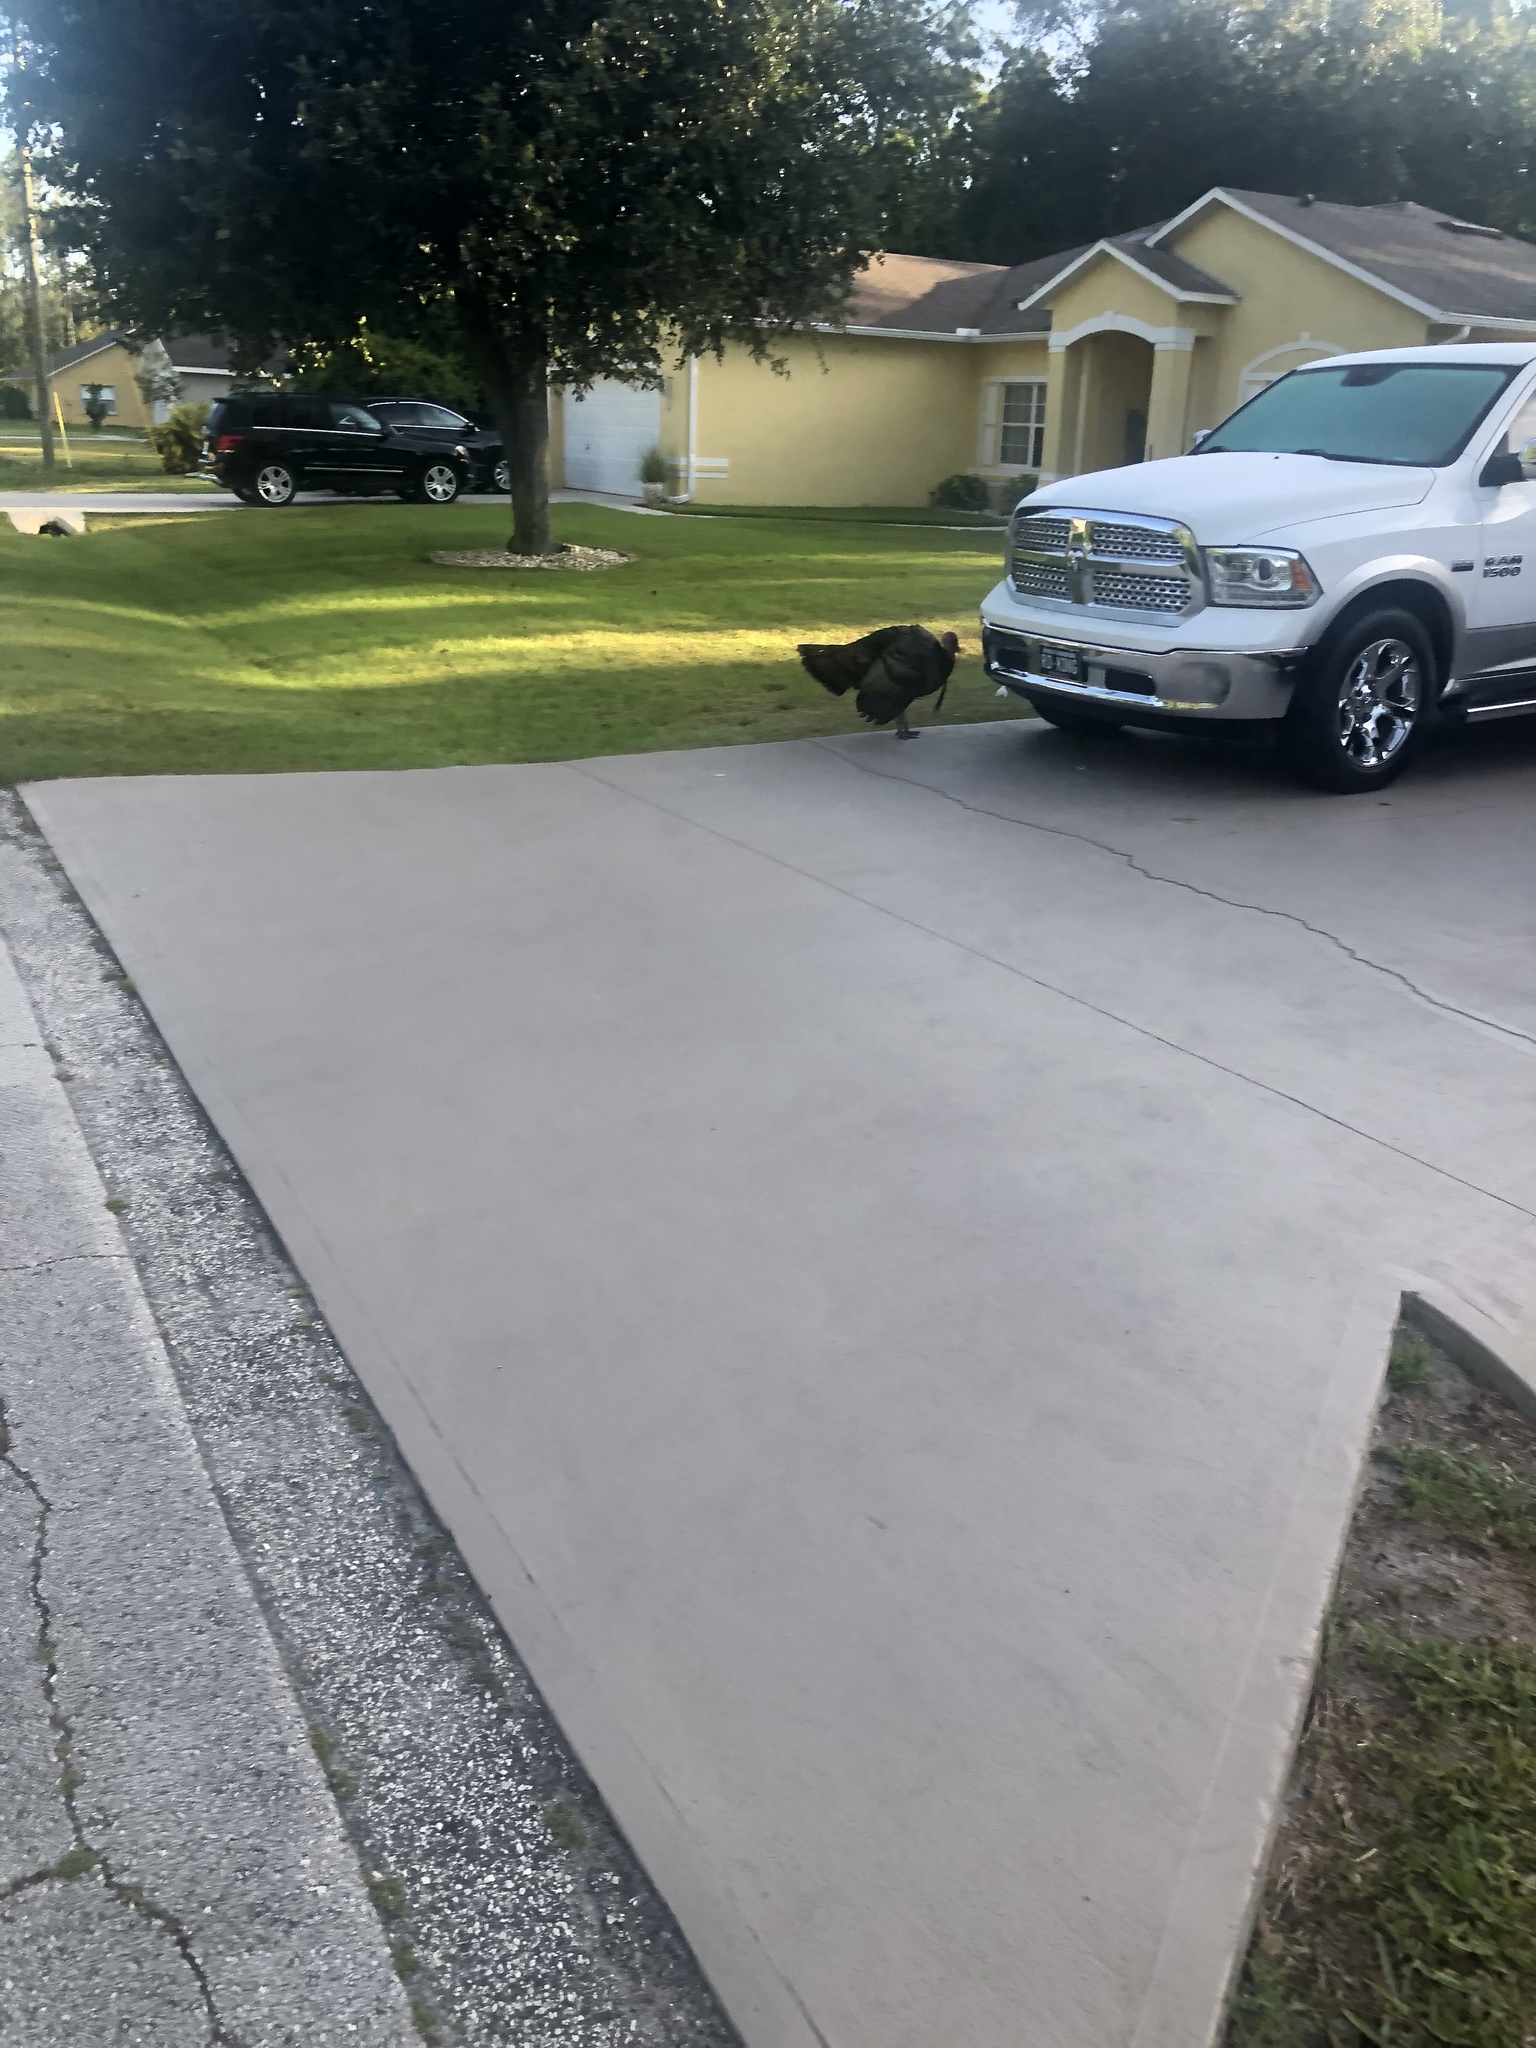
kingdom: Animalia
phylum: Chordata
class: Aves
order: Galliformes
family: Phasianidae
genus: Meleagris
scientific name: Meleagris gallopavo
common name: Wild turkey
